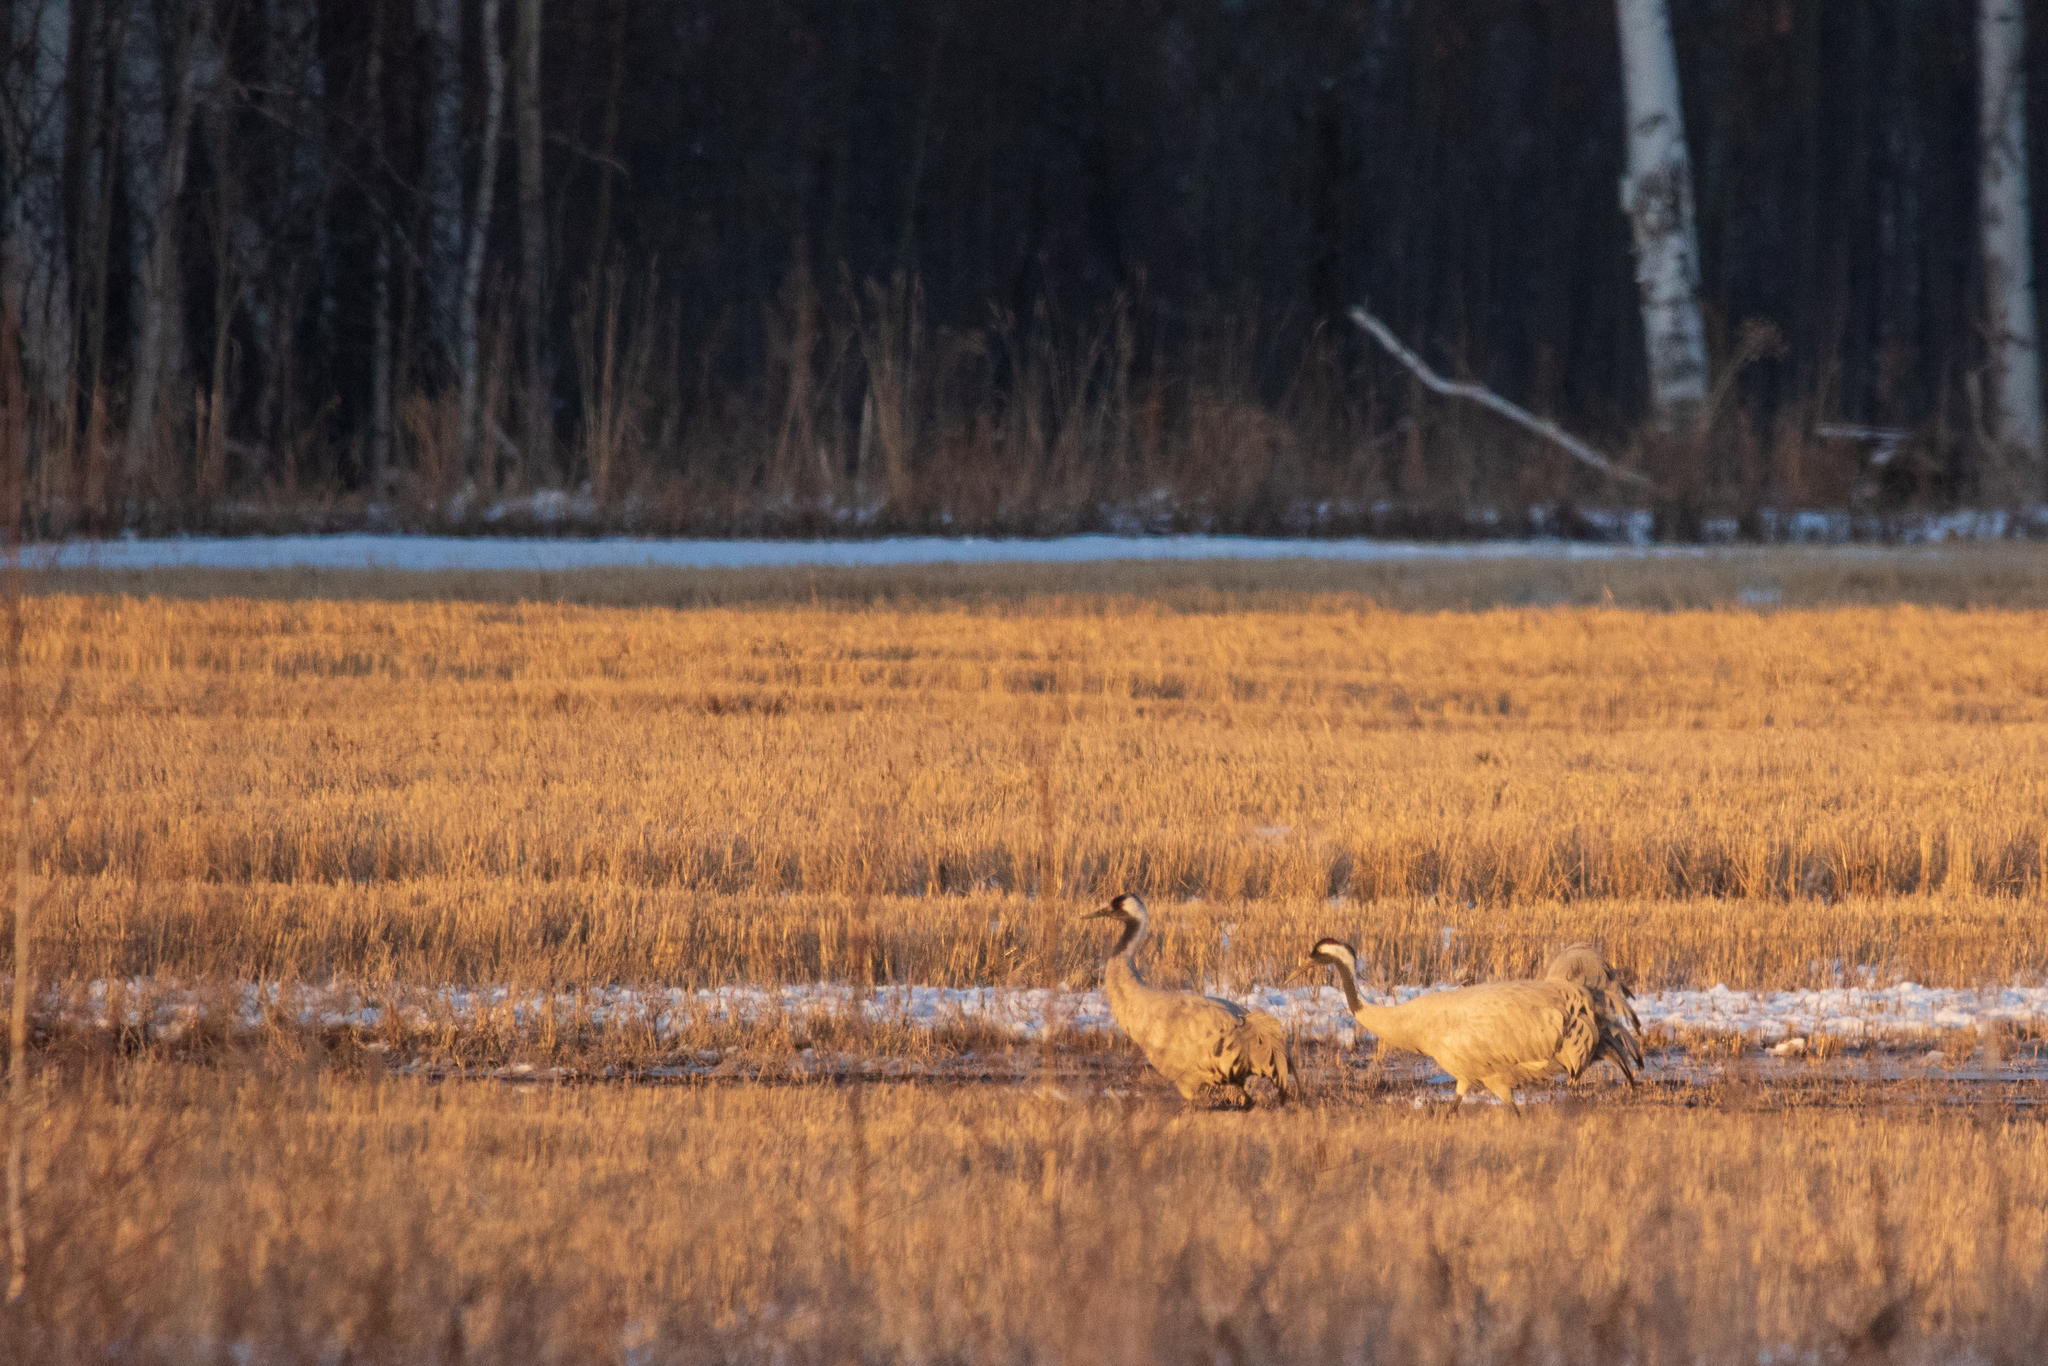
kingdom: Animalia
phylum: Chordata
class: Aves
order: Gruiformes
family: Gruidae
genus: Grus
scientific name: Grus grus
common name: Common crane
